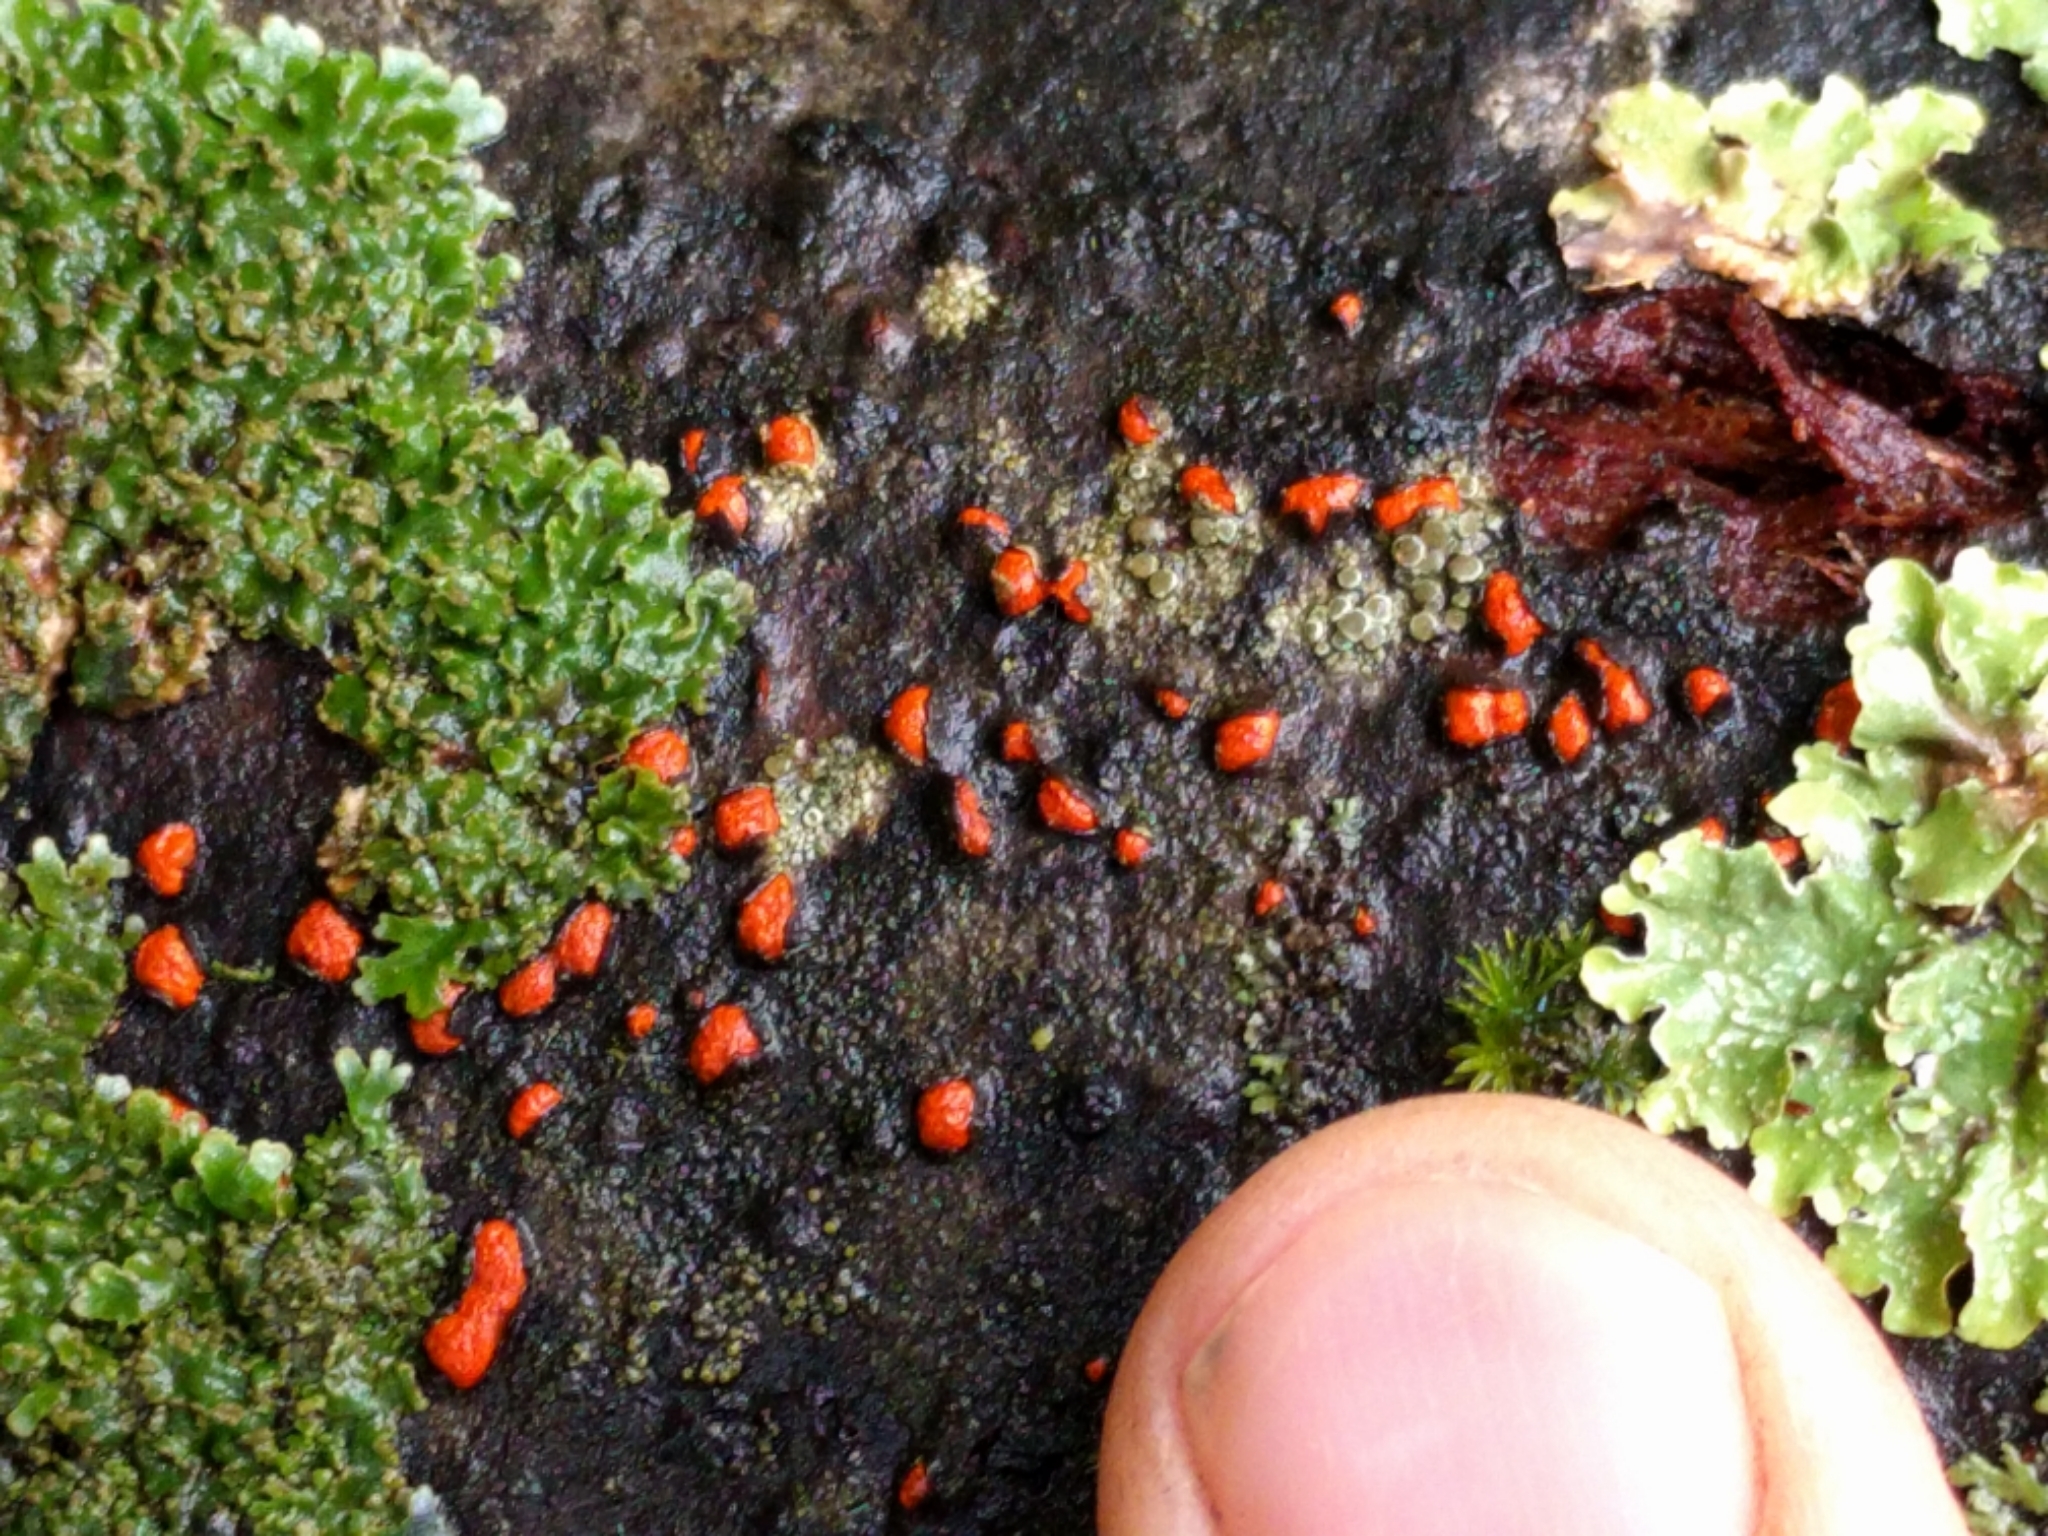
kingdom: Fungi
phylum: Ascomycota
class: Sordariomycetes
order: Diaporthales
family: Cryphonectriaceae
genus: Amphilogia
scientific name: Amphilogia gyrosa
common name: Orange hobnail canker
